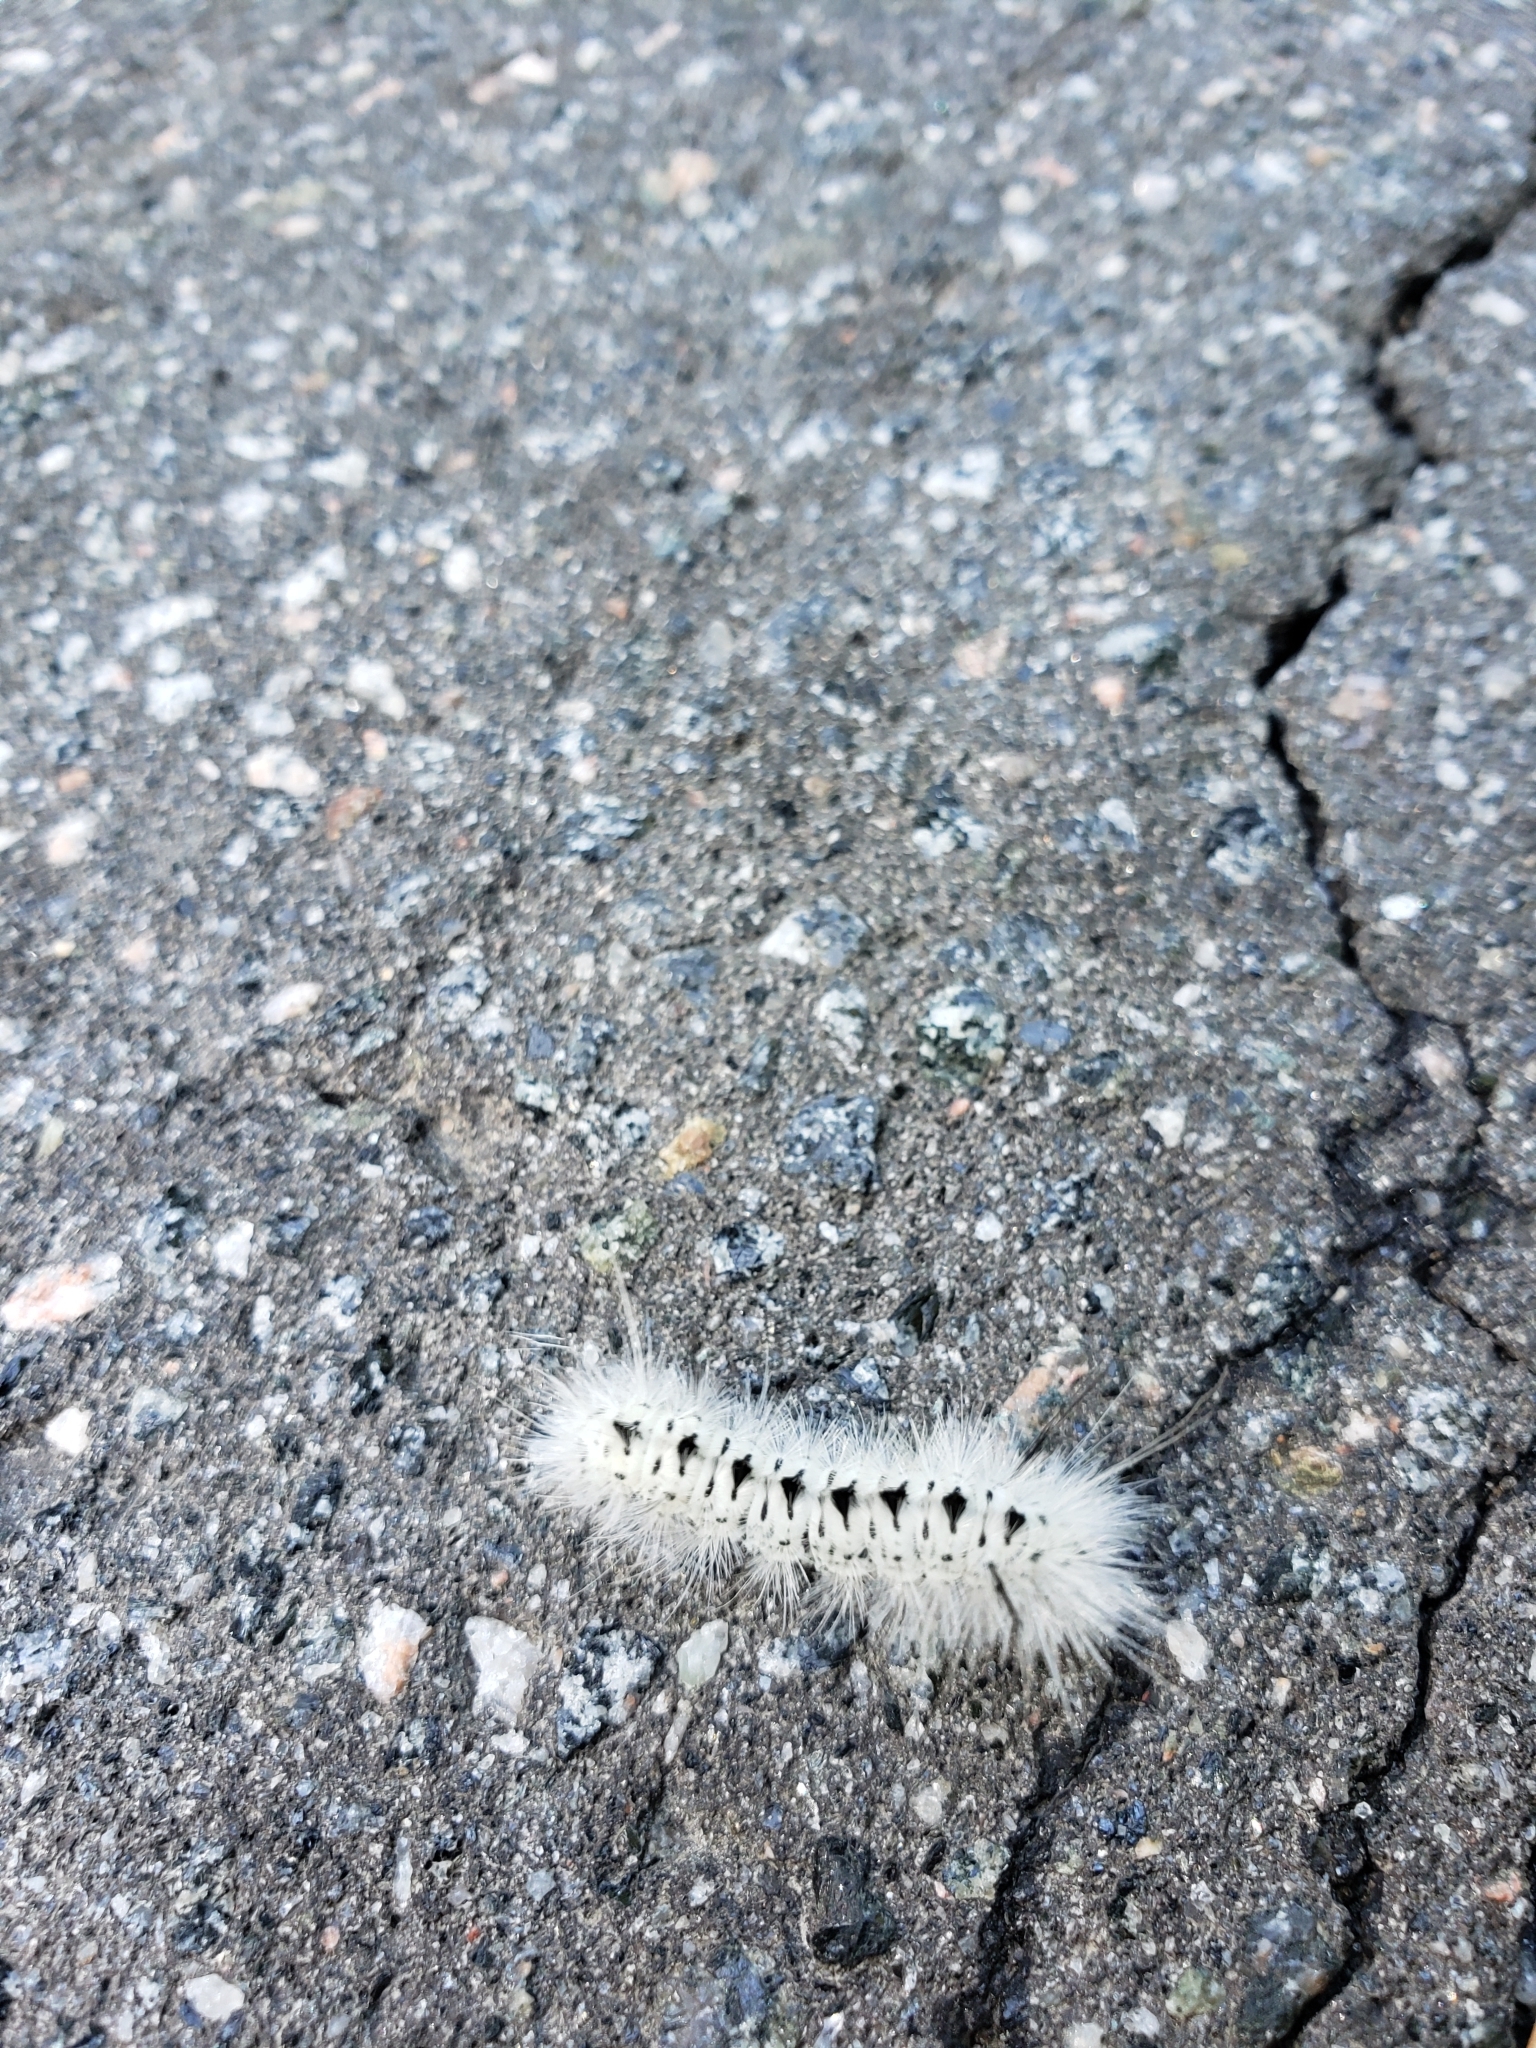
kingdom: Animalia
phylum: Arthropoda
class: Insecta
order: Lepidoptera
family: Erebidae
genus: Lophocampa
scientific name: Lophocampa caryae
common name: Hickory tussock moth
